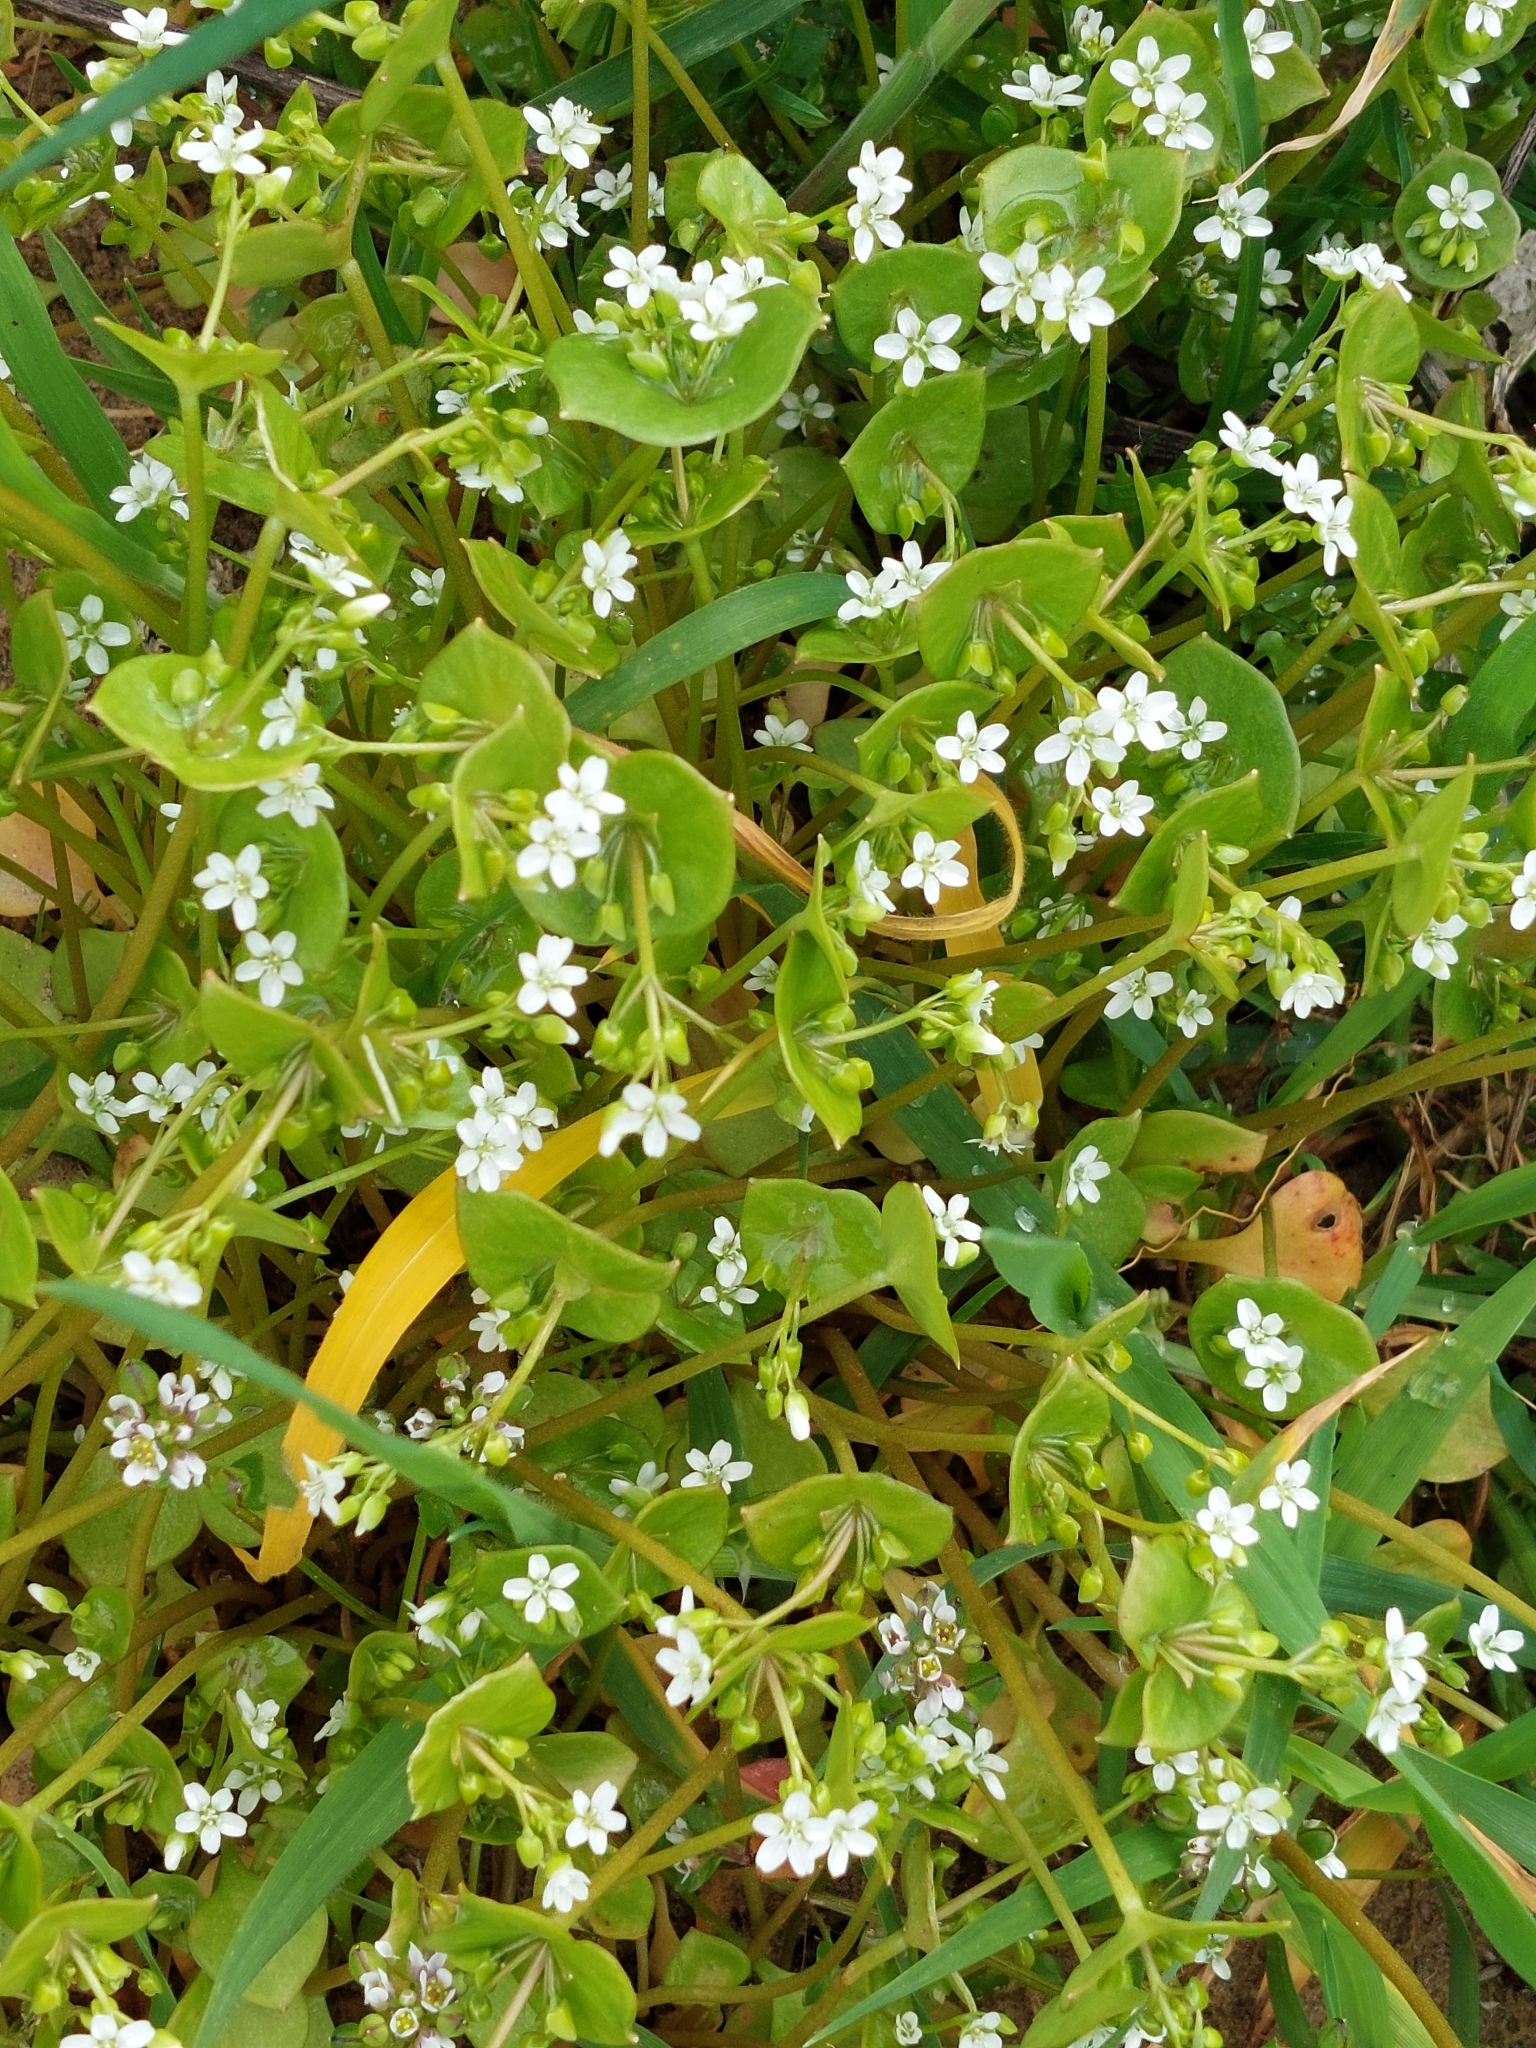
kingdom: Plantae
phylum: Tracheophyta
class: Magnoliopsida
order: Caryophyllales
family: Montiaceae
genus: Claytonia
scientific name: Claytonia perfoliata
